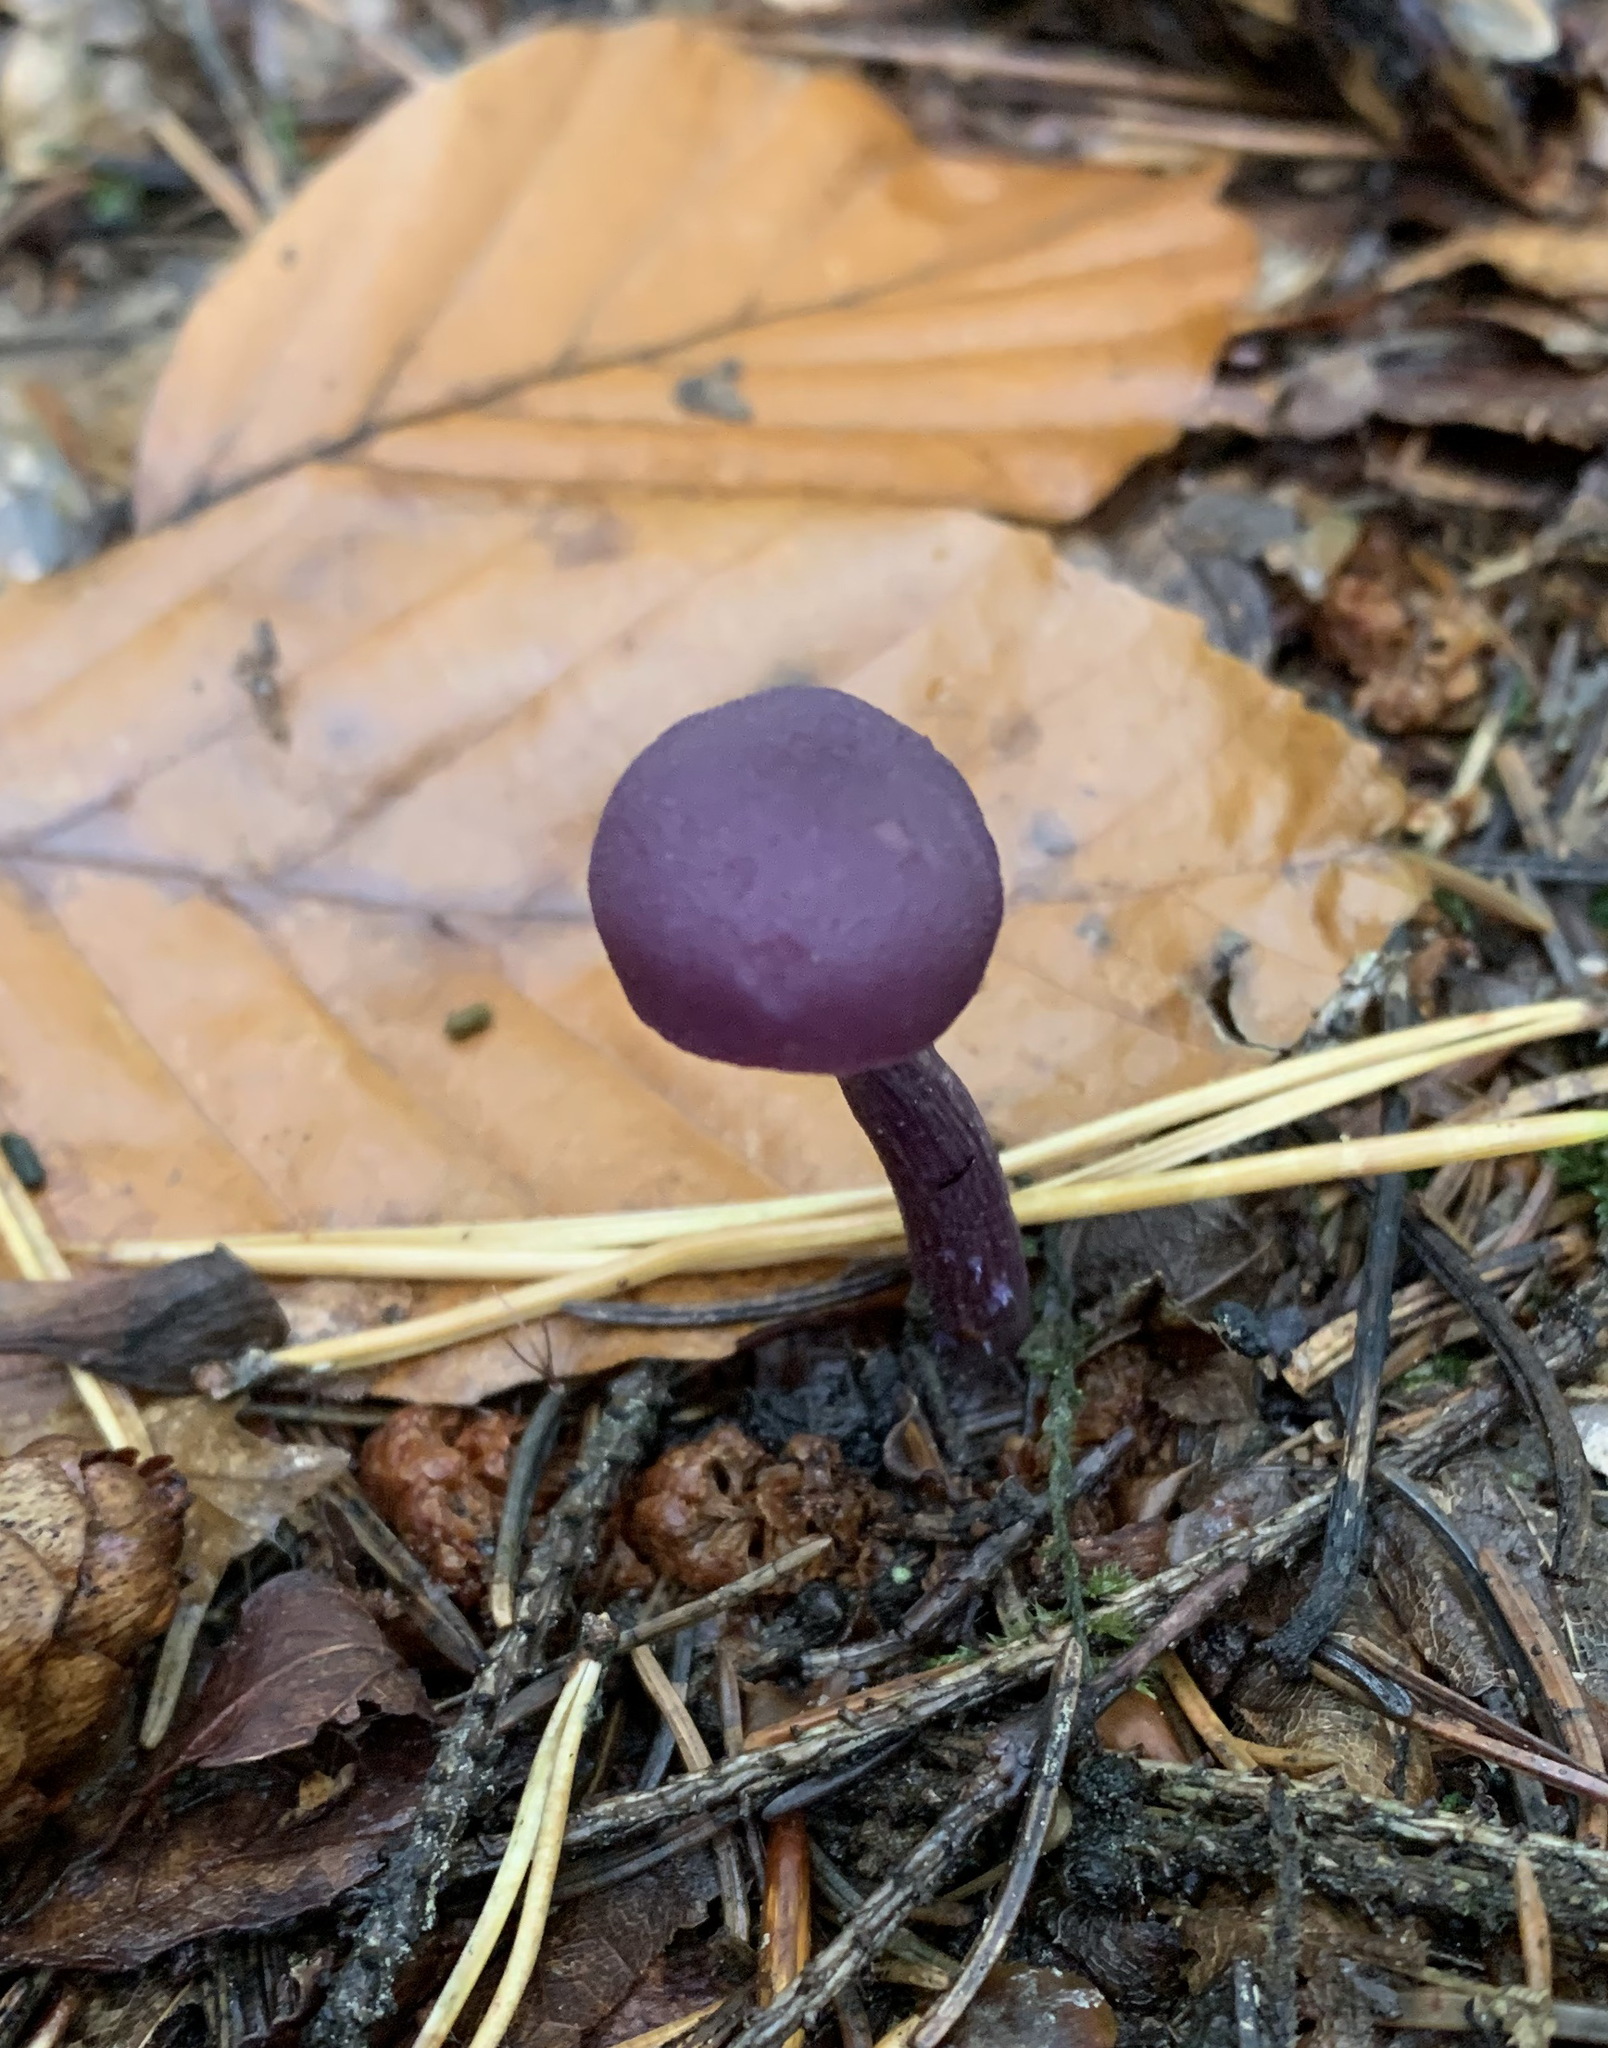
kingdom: Fungi
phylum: Basidiomycota
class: Agaricomycetes
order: Agaricales
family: Hydnangiaceae
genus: Laccaria
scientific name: Laccaria amethystina
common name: Amethyst deceiver
